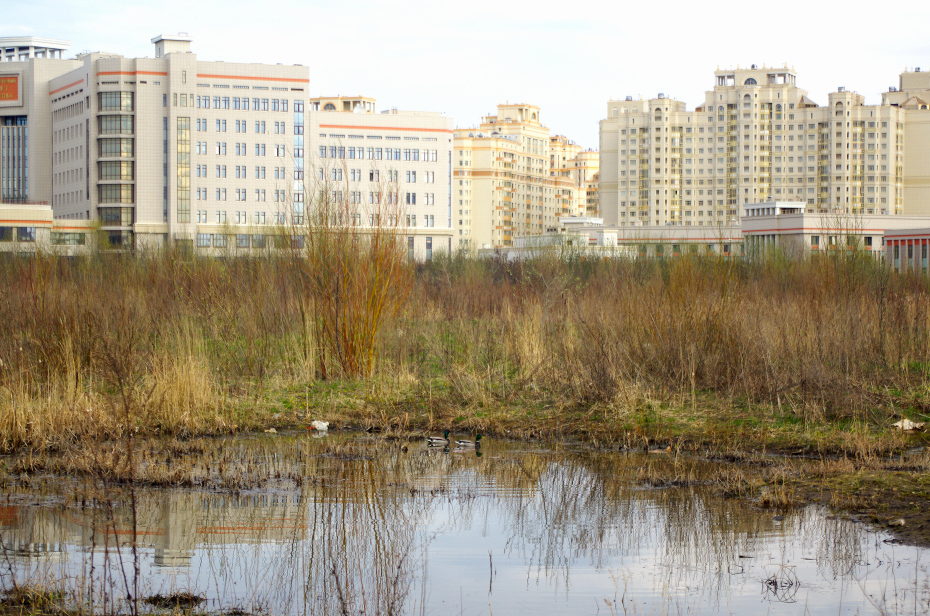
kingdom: Animalia
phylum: Chordata
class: Aves
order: Anseriformes
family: Anatidae
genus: Anas
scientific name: Anas platyrhynchos
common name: Mallard
